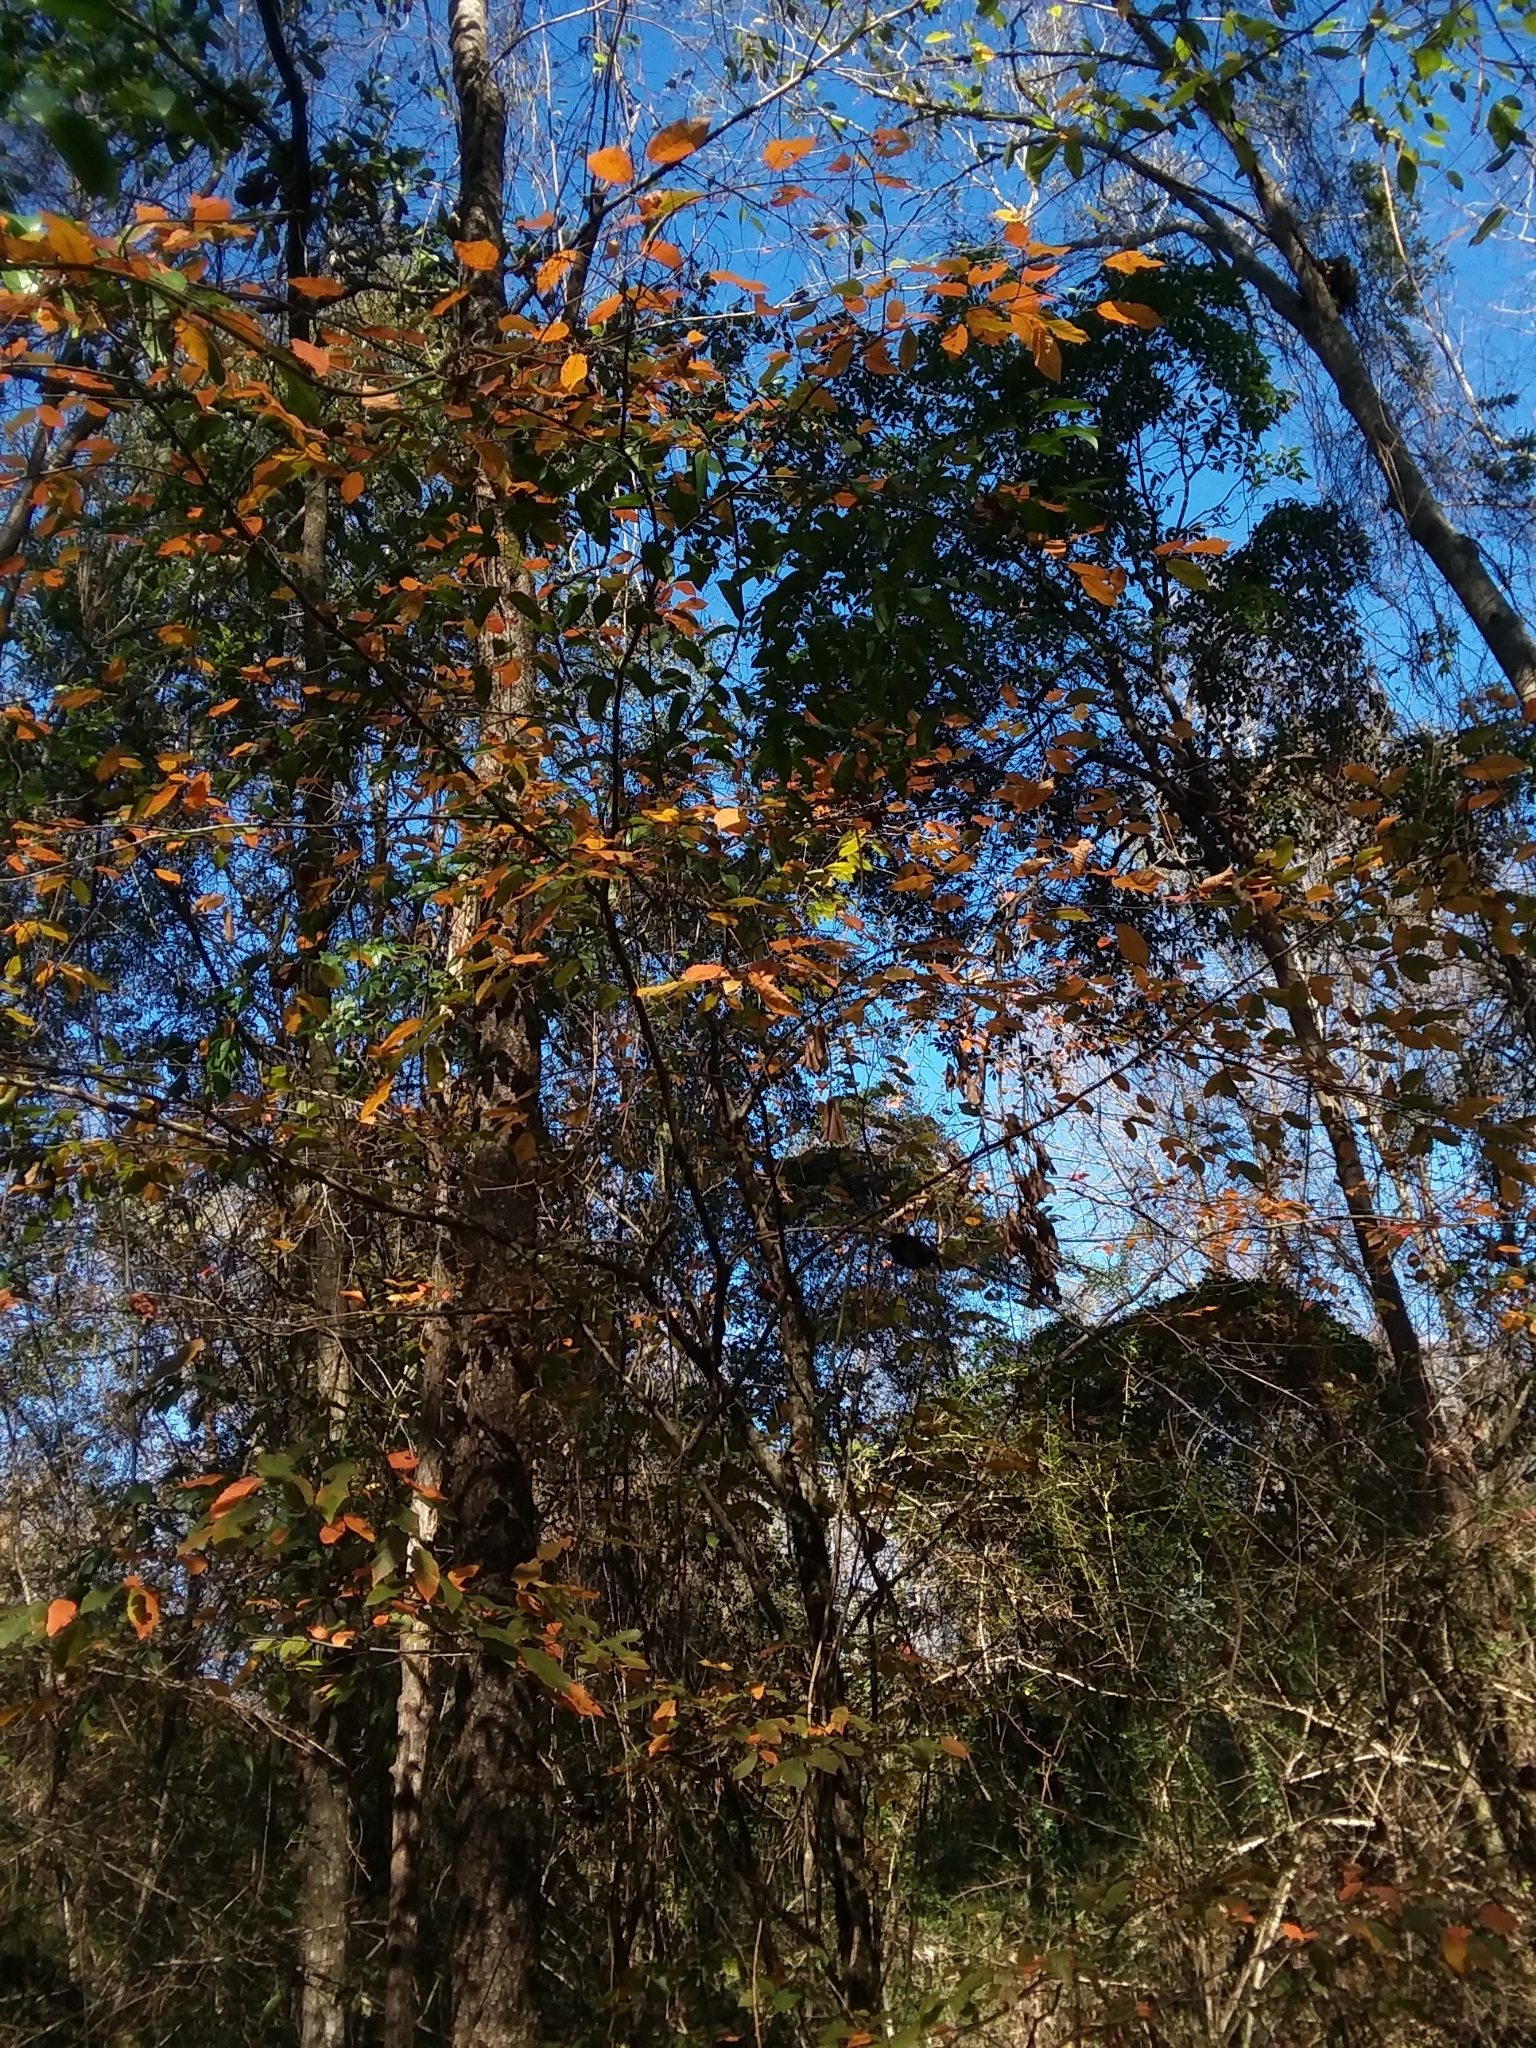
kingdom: Plantae
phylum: Tracheophyta
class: Magnoliopsida
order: Fagales
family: Betulaceae
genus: Carpinus
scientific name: Carpinus caroliniana
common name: American hornbeam
